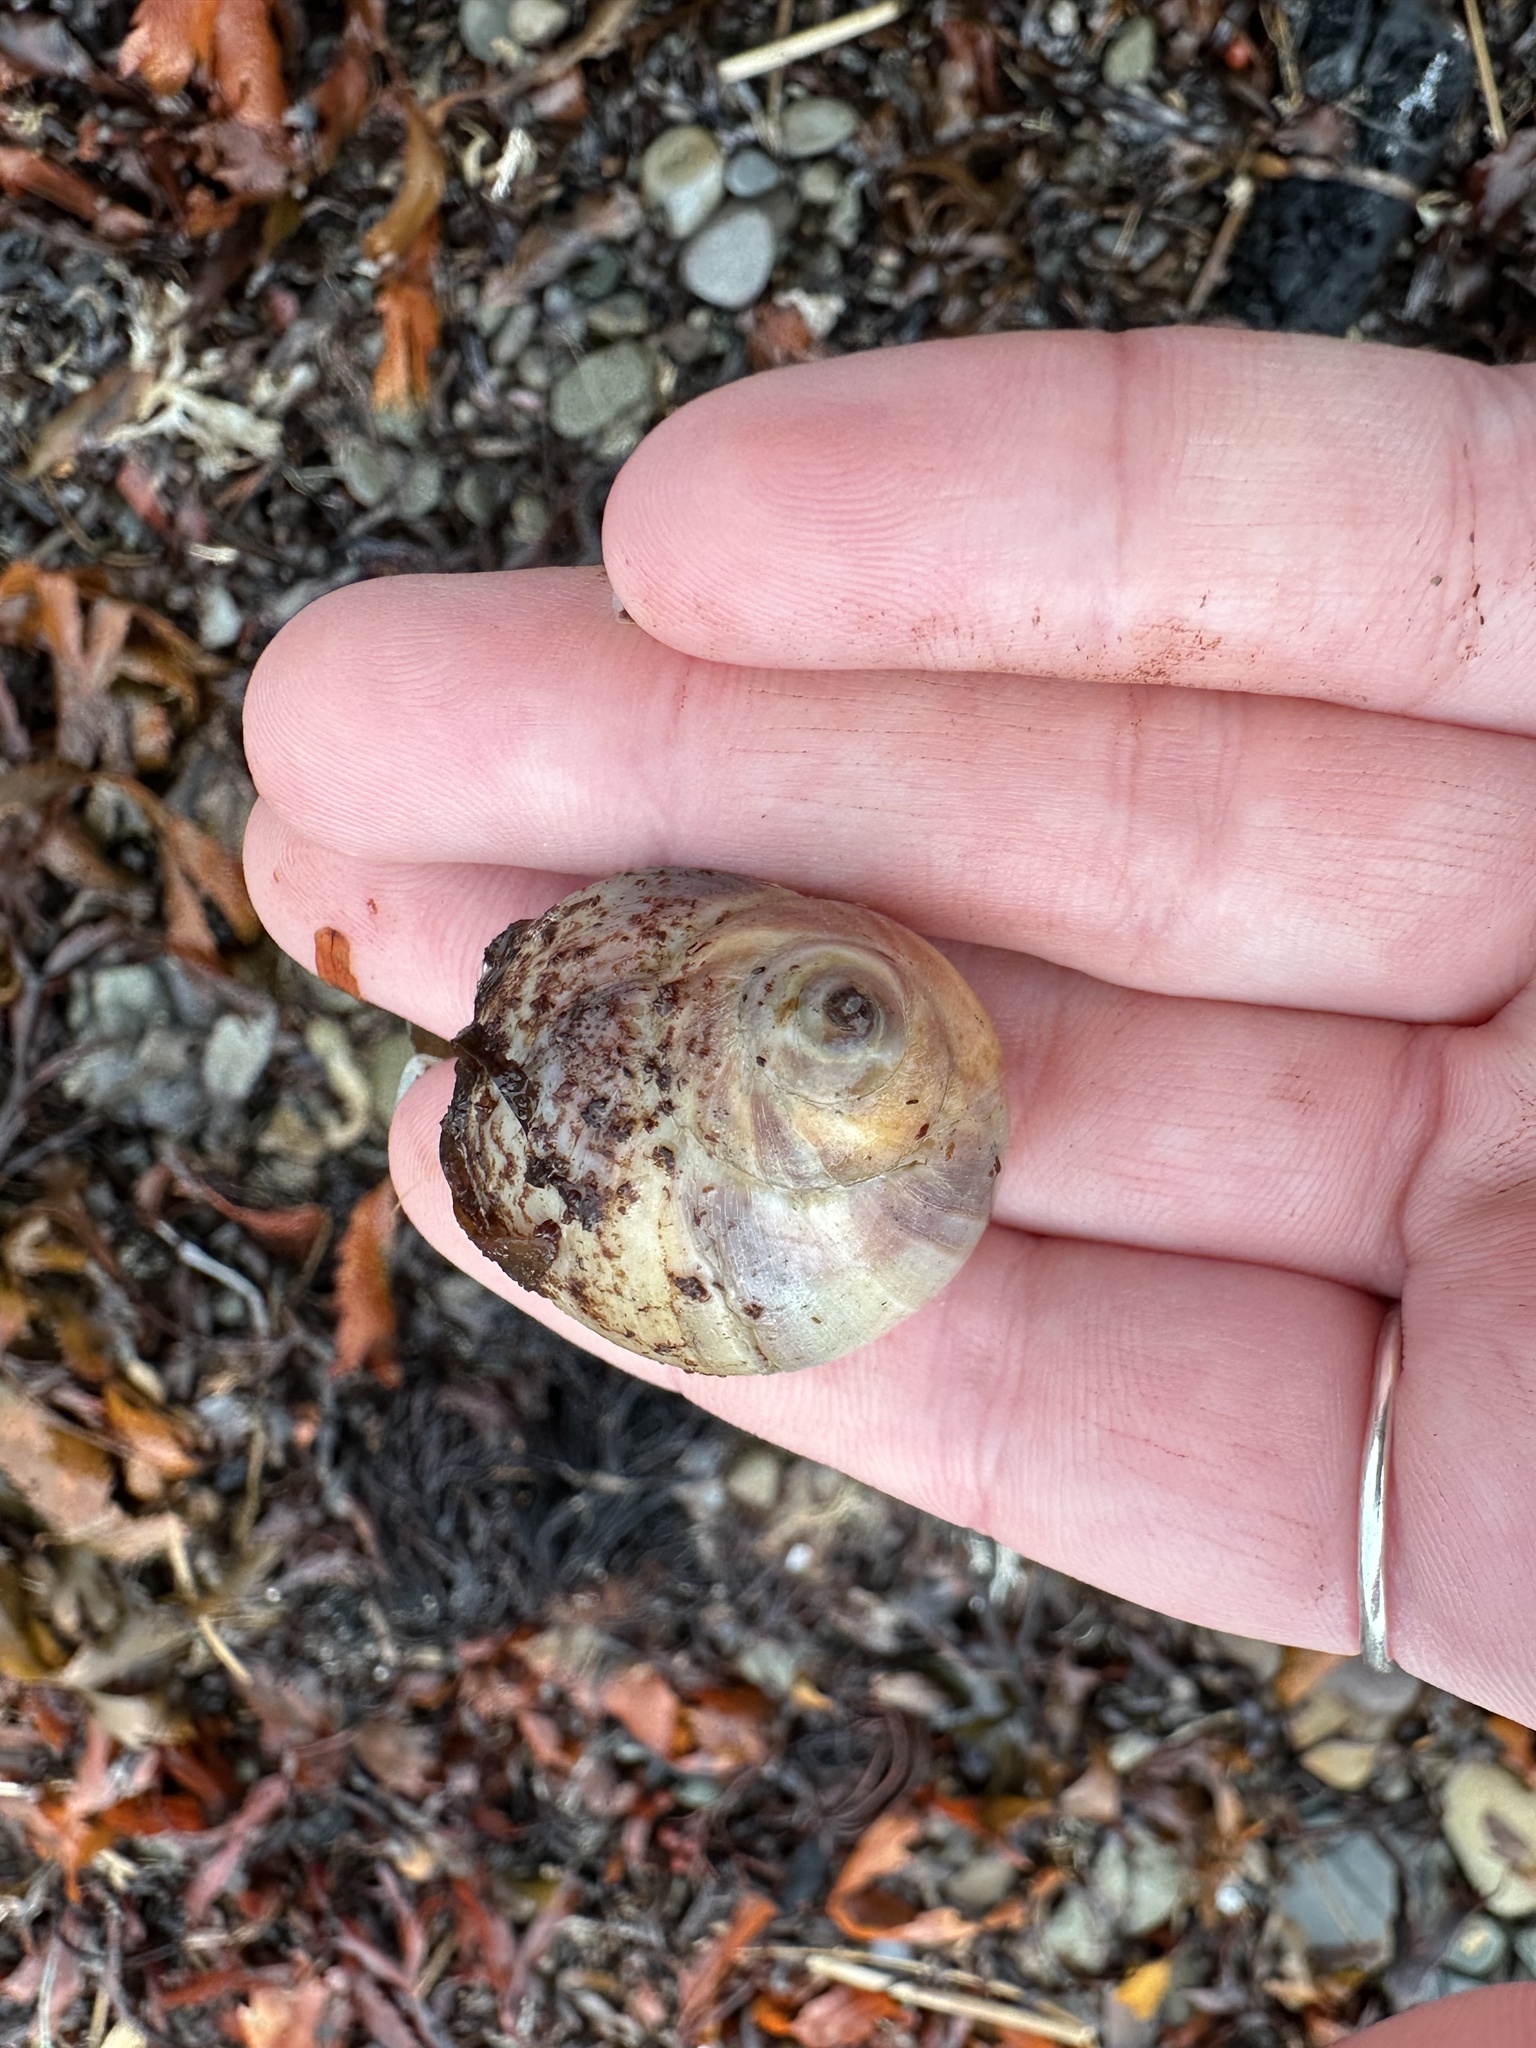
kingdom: Animalia
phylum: Mollusca
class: Gastropoda
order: Littorinimorpha
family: Naticidae
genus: Euspira
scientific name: Euspira heros
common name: Common northern moonsnail
